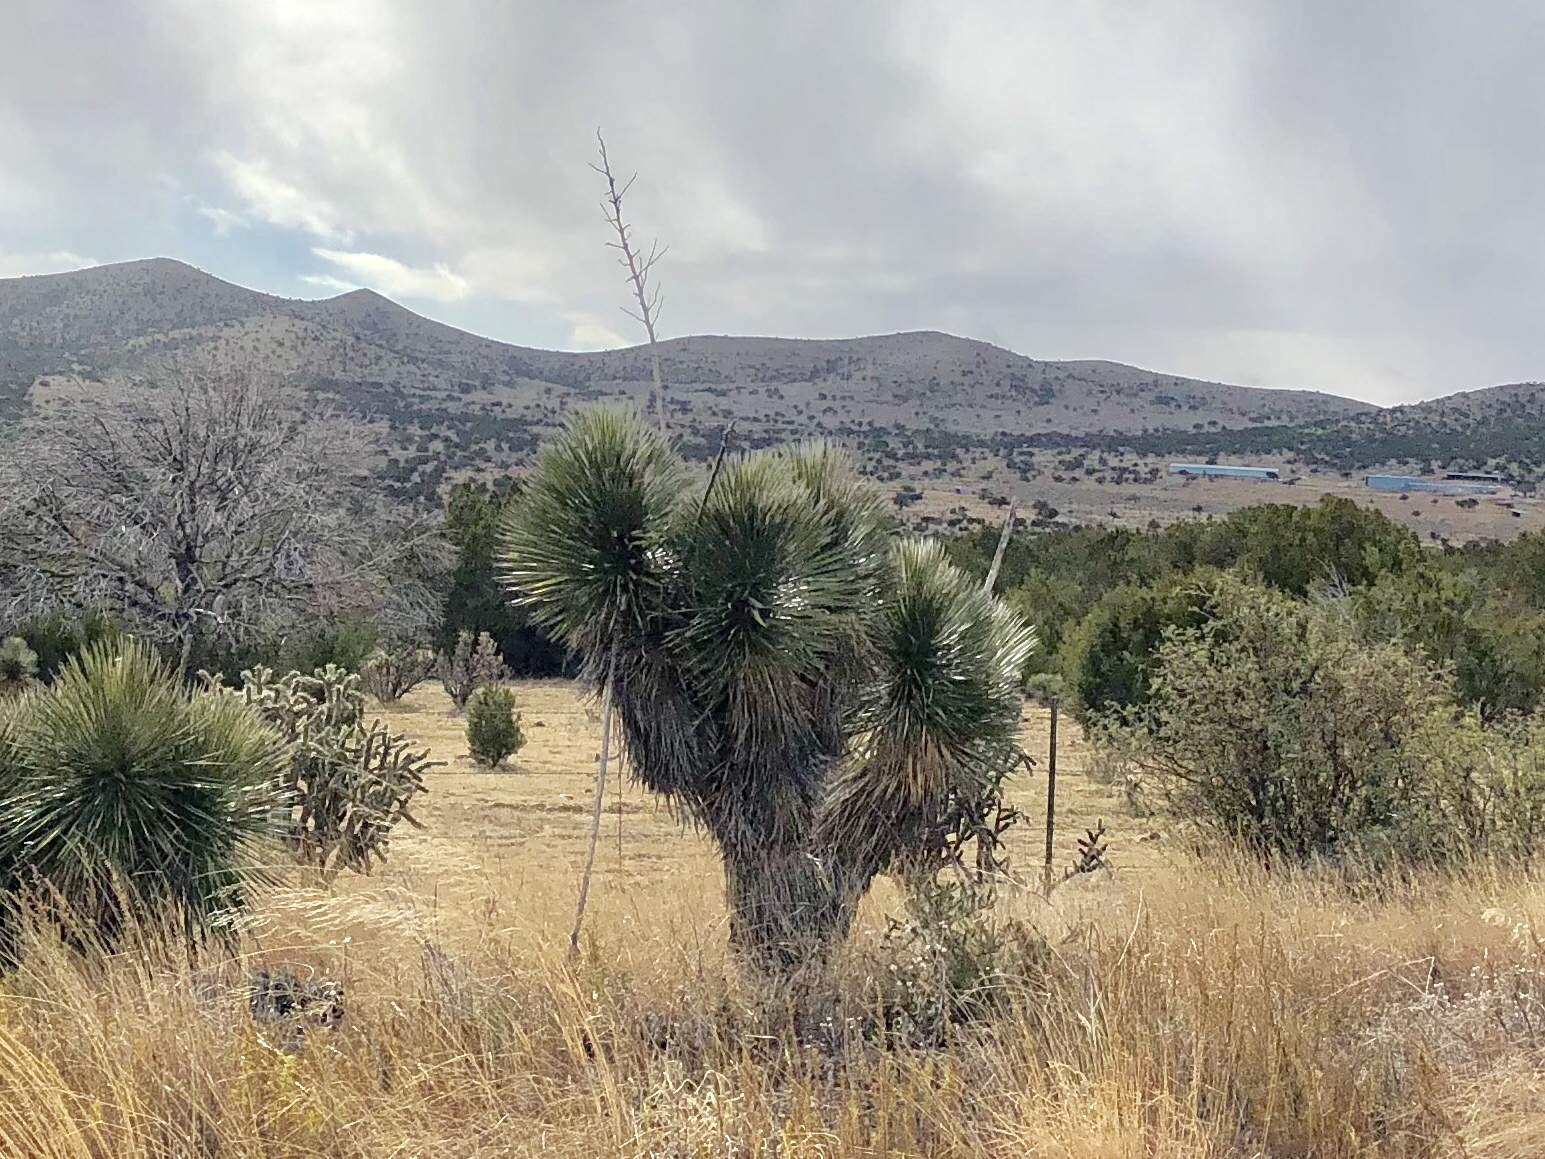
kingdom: Plantae
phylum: Tracheophyta
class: Liliopsida
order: Asparagales
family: Asparagaceae
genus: Yucca
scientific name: Yucca elata
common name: Palmella
